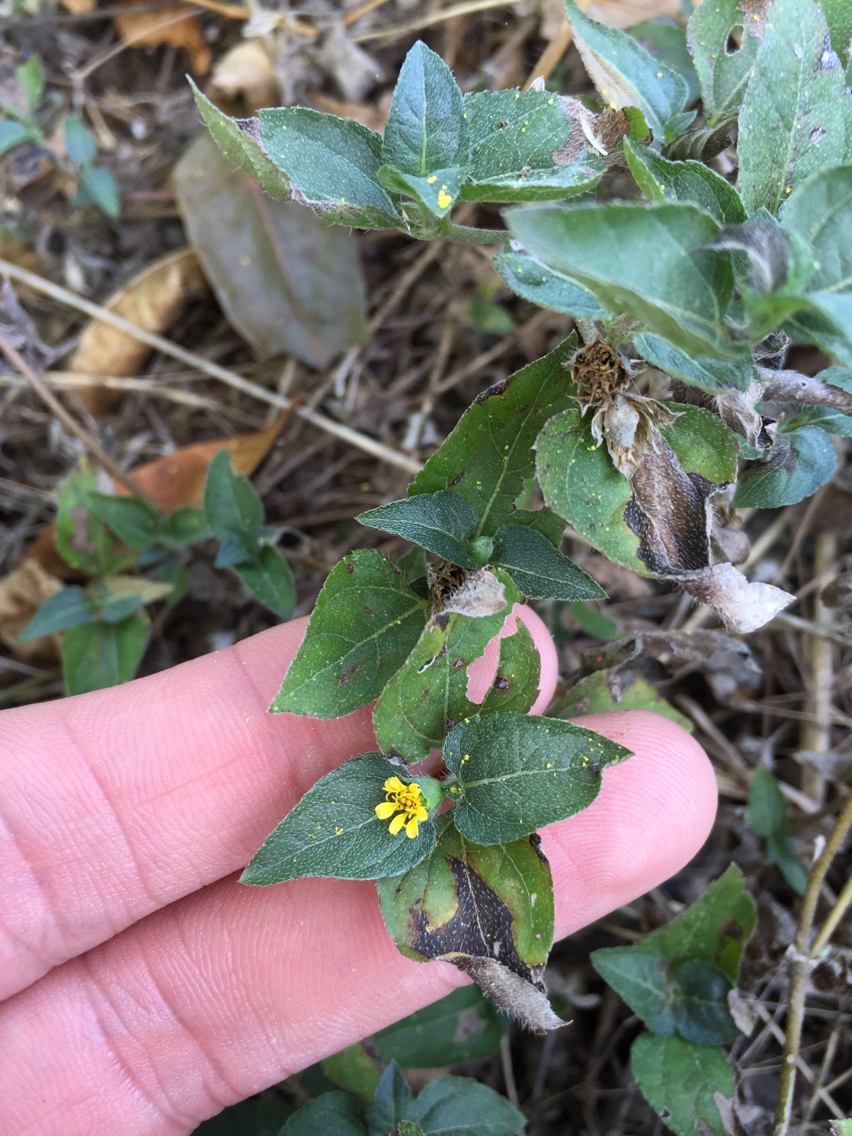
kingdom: Plantae
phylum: Tracheophyta
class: Magnoliopsida
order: Asterales
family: Asteraceae
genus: Calyptocarpus
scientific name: Calyptocarpus vialis
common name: Straggler daisy
